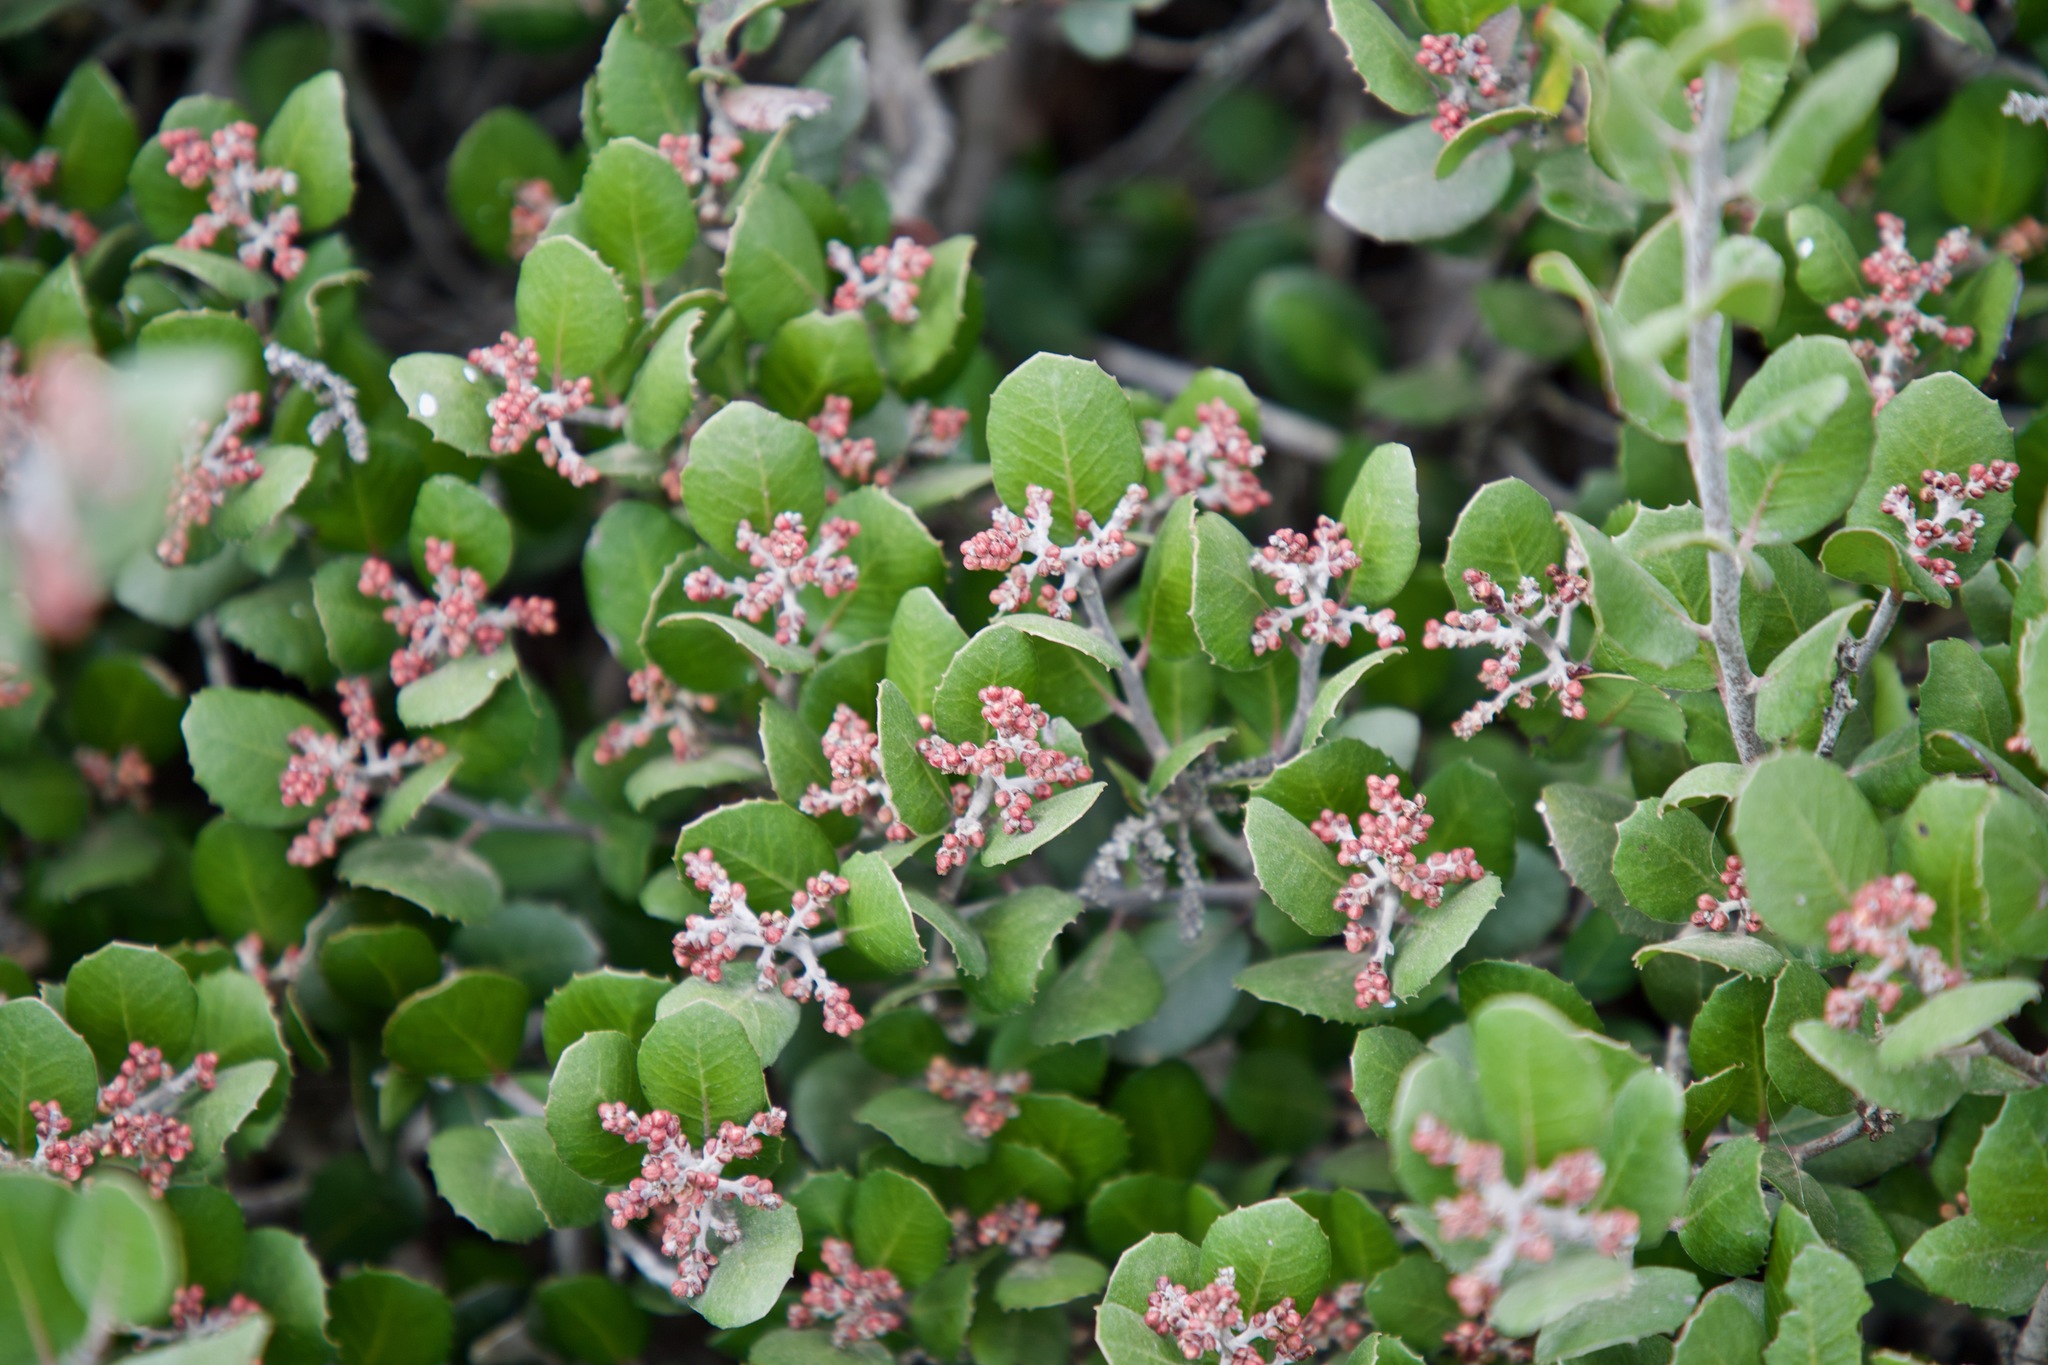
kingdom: Plantae
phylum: Tracheophyta
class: Magnoliopsida
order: Sapindales
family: Anacardiaceae
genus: Rhus
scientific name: Rhus integrifolia
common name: Lemonade sumac
